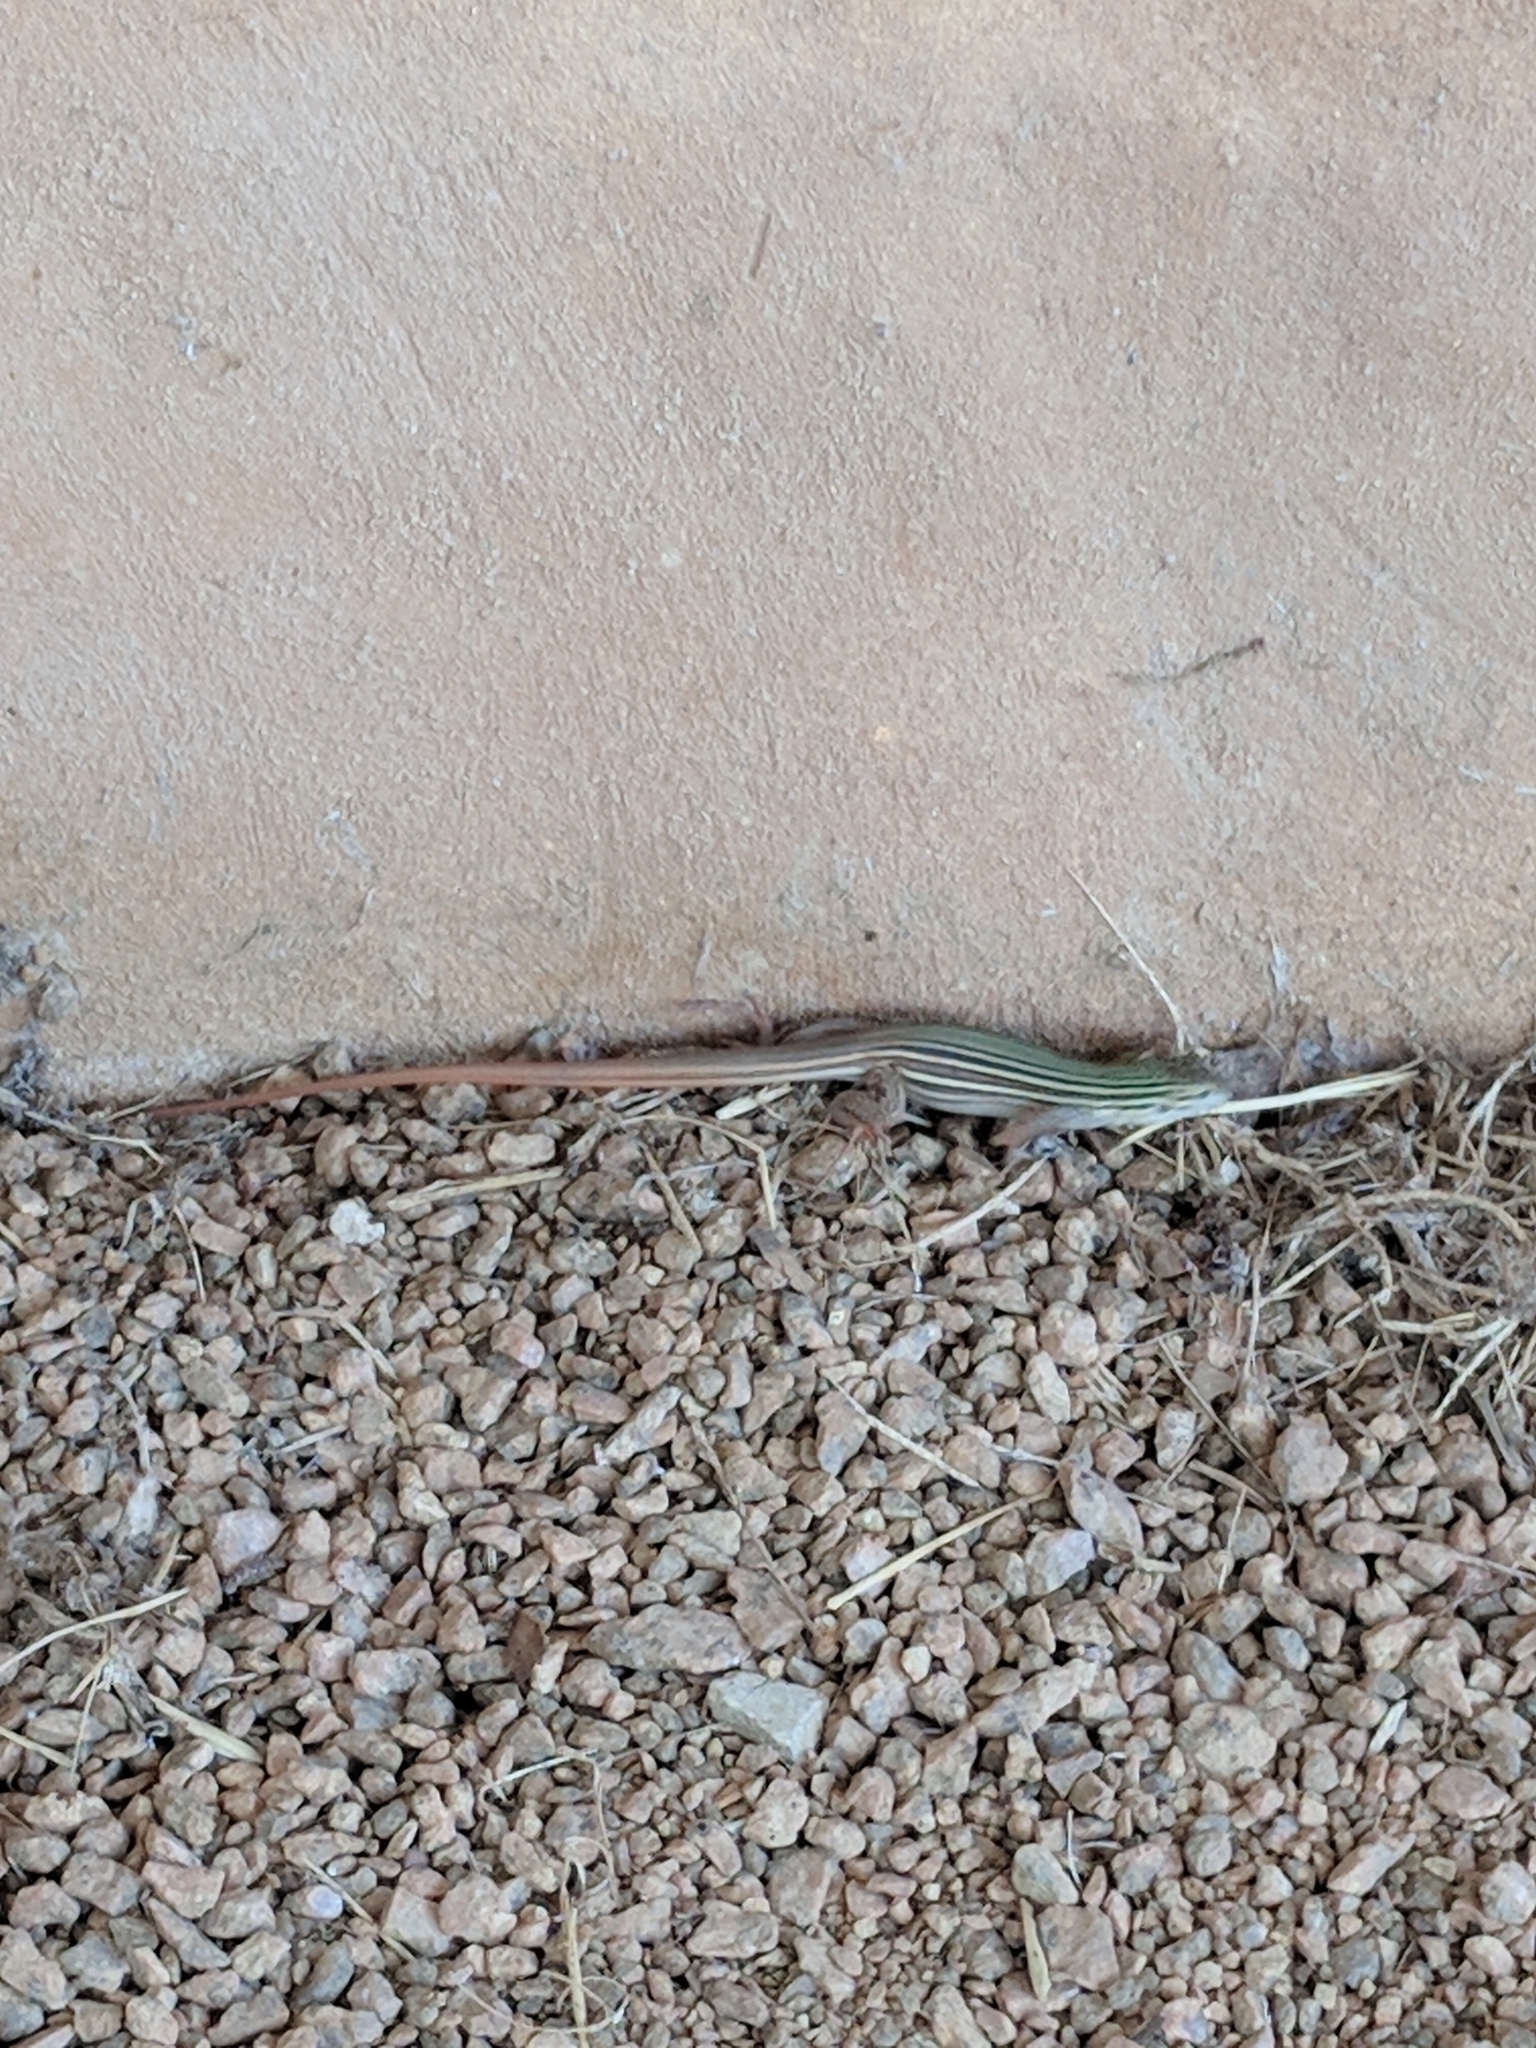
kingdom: Animalia
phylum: Chordata
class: Squamata
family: Teiidae
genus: Aspidoscelis
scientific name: Aspidoscelis gularis
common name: Eastern spotted whiptail
